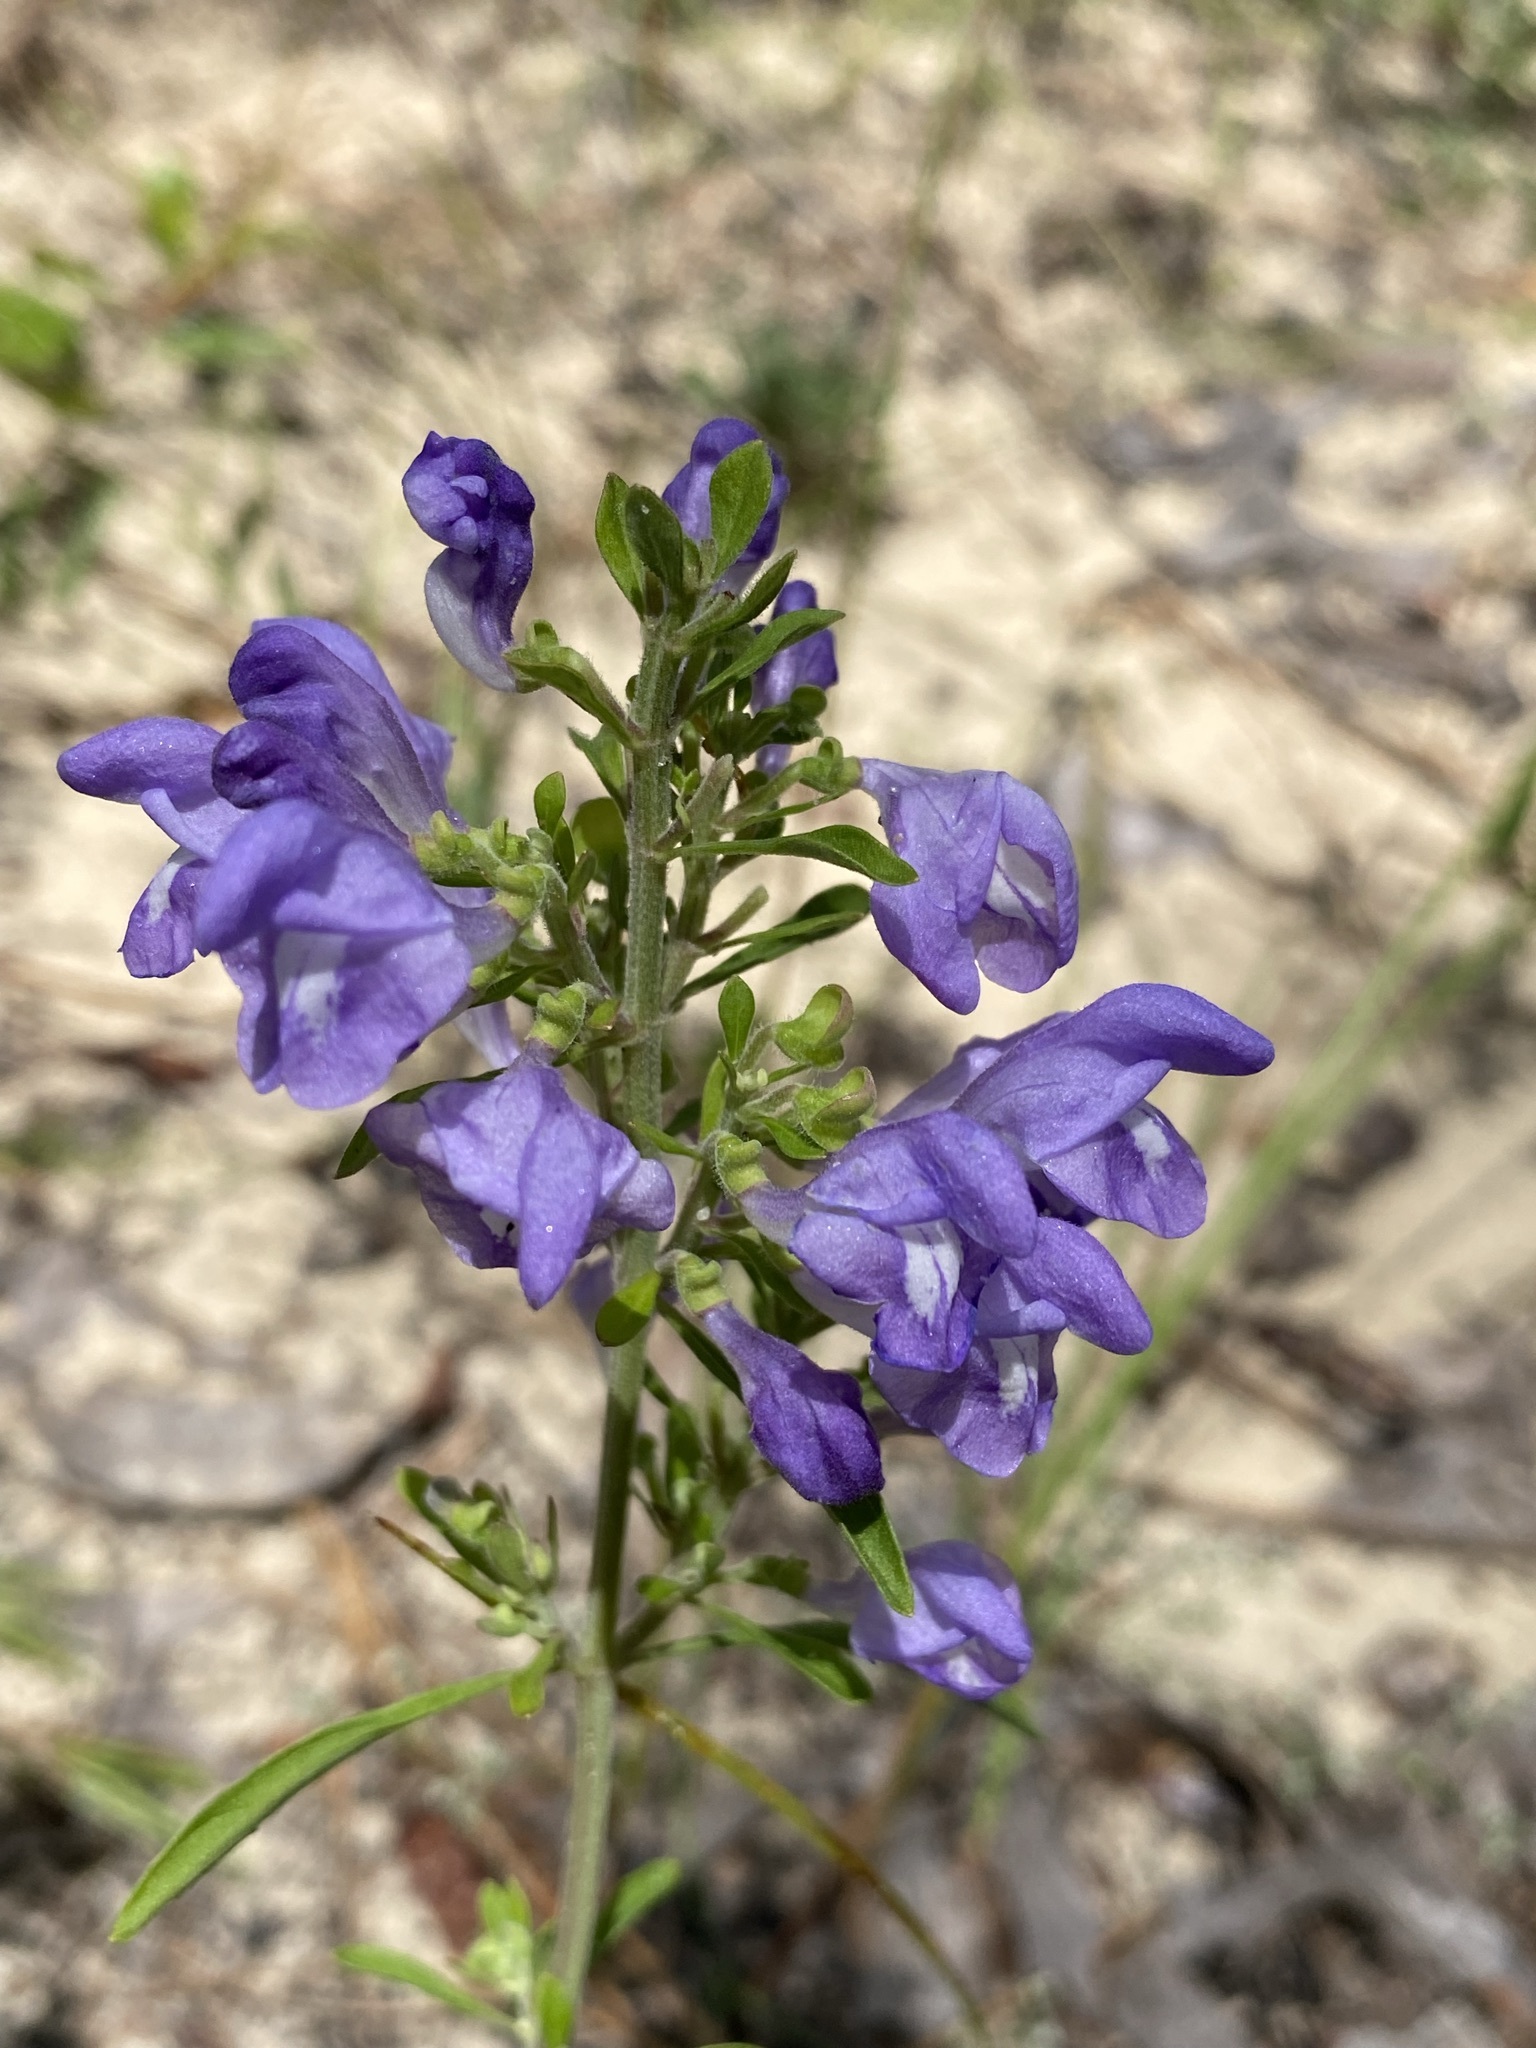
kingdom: Plantae
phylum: Tracheophyta
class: Magnoliopsida
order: Lamiales
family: Lamiaceae
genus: Scutellaria
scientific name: Scutellaria integrifolia
